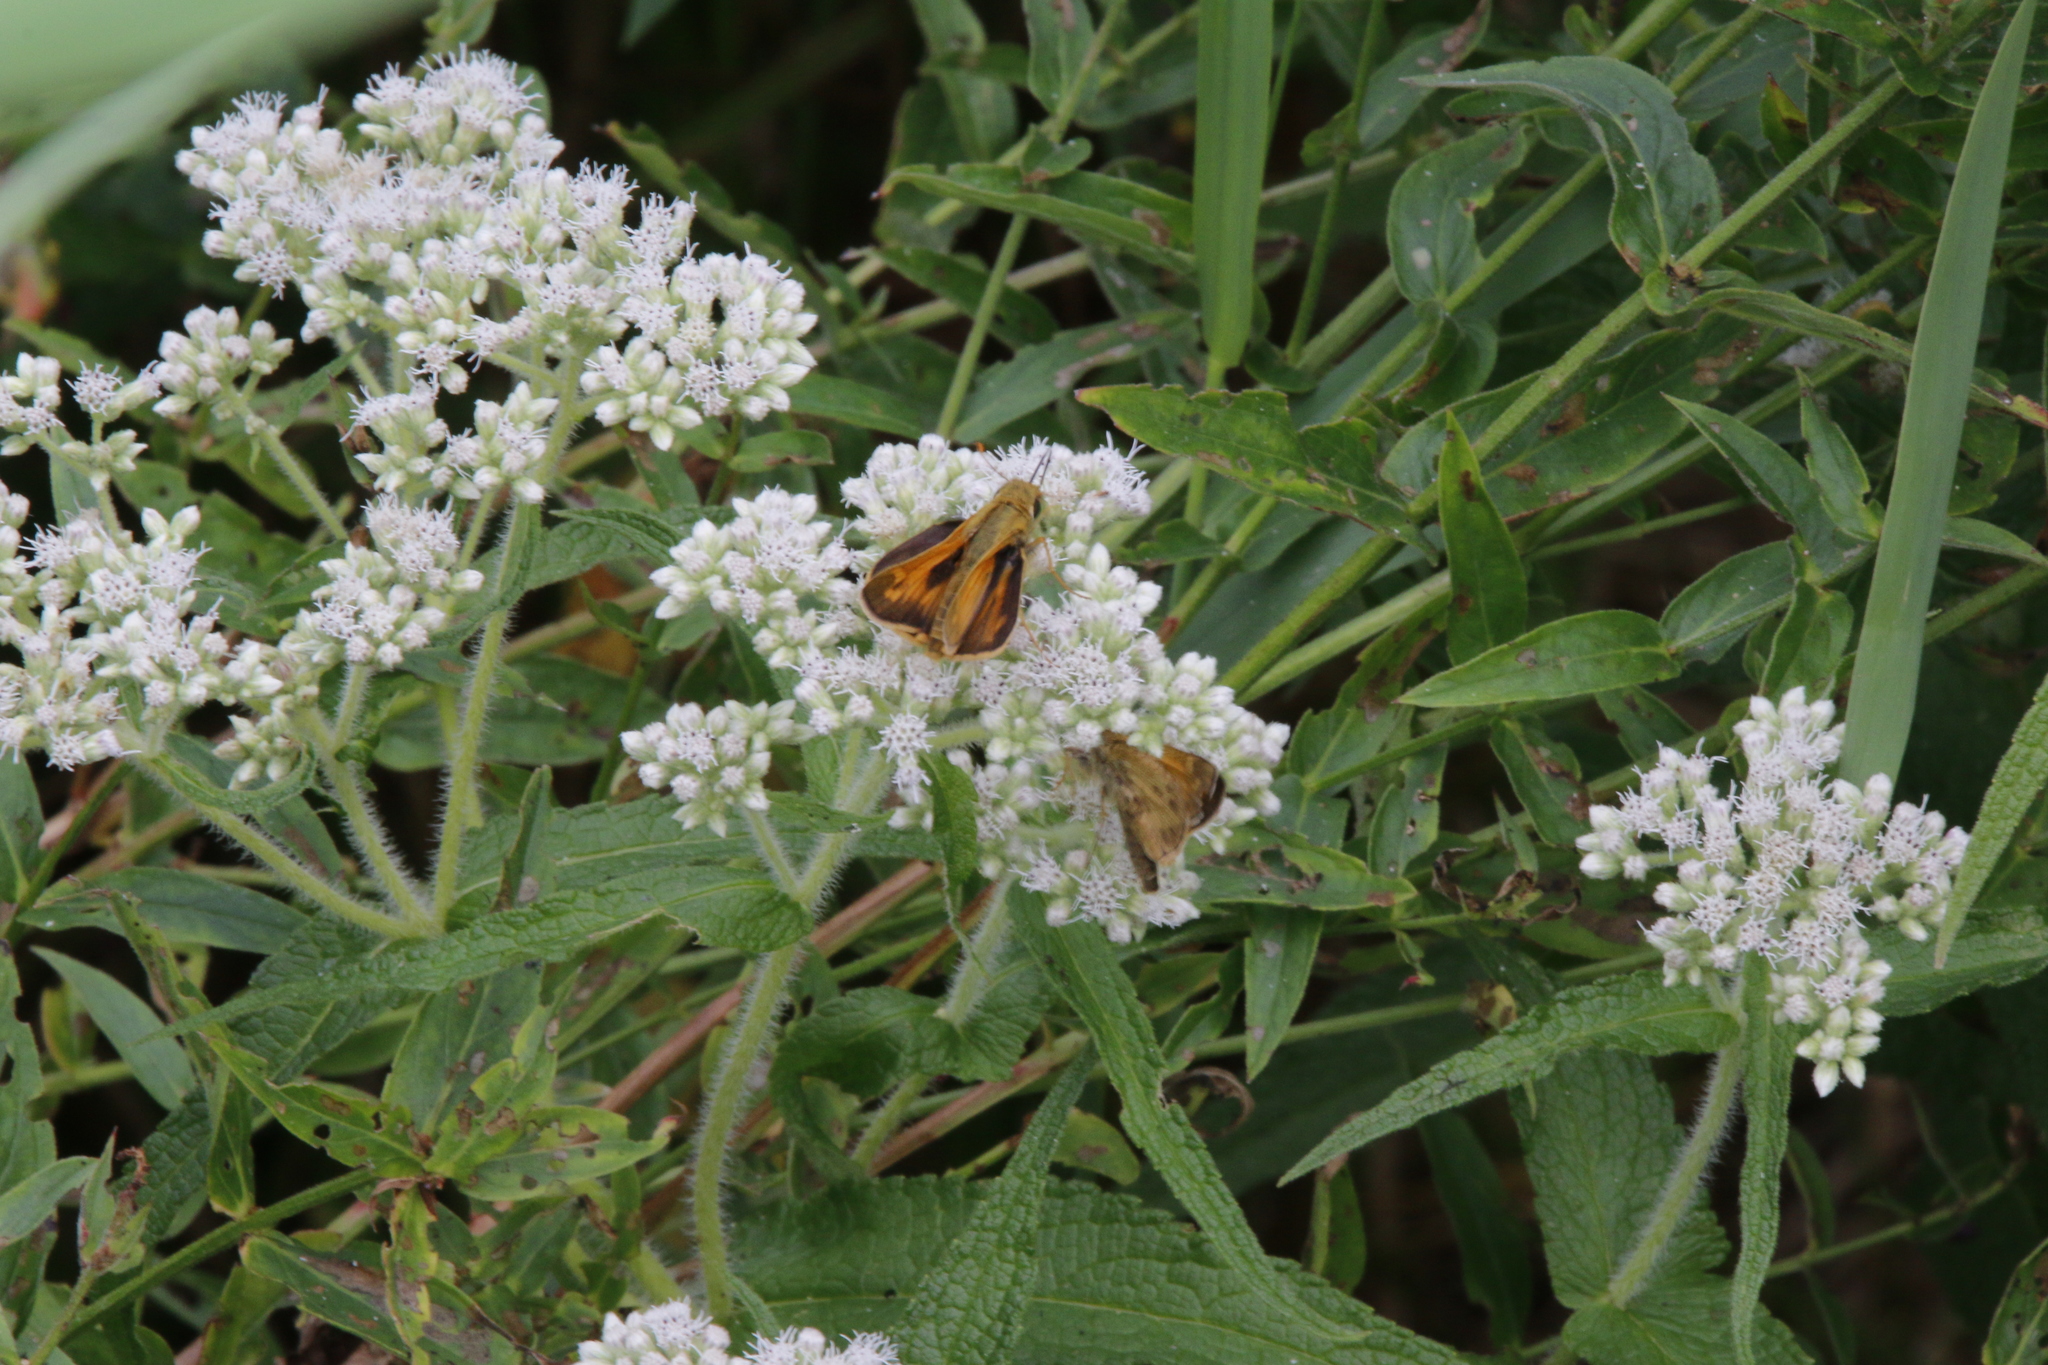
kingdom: Animalia
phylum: Arthropoda
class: Insecta
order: Lepidoptera
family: Hesperiidae
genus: Atalopedes
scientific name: Atalopedes
